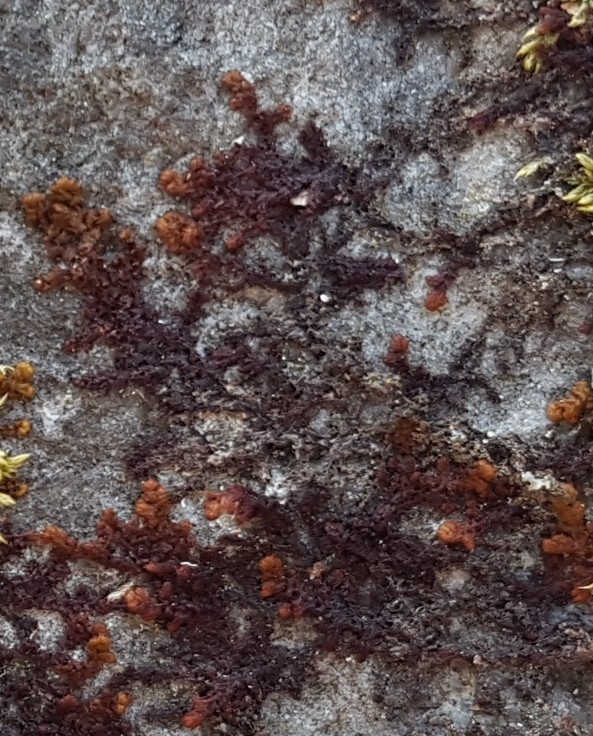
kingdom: Plantae
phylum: Marchantiophyta
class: Jungermanniopsida
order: Ptilidiales
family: Ptilidiaceae
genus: Ptilidium
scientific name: Ptilidium pulcherrimum
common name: Tree fringewort
